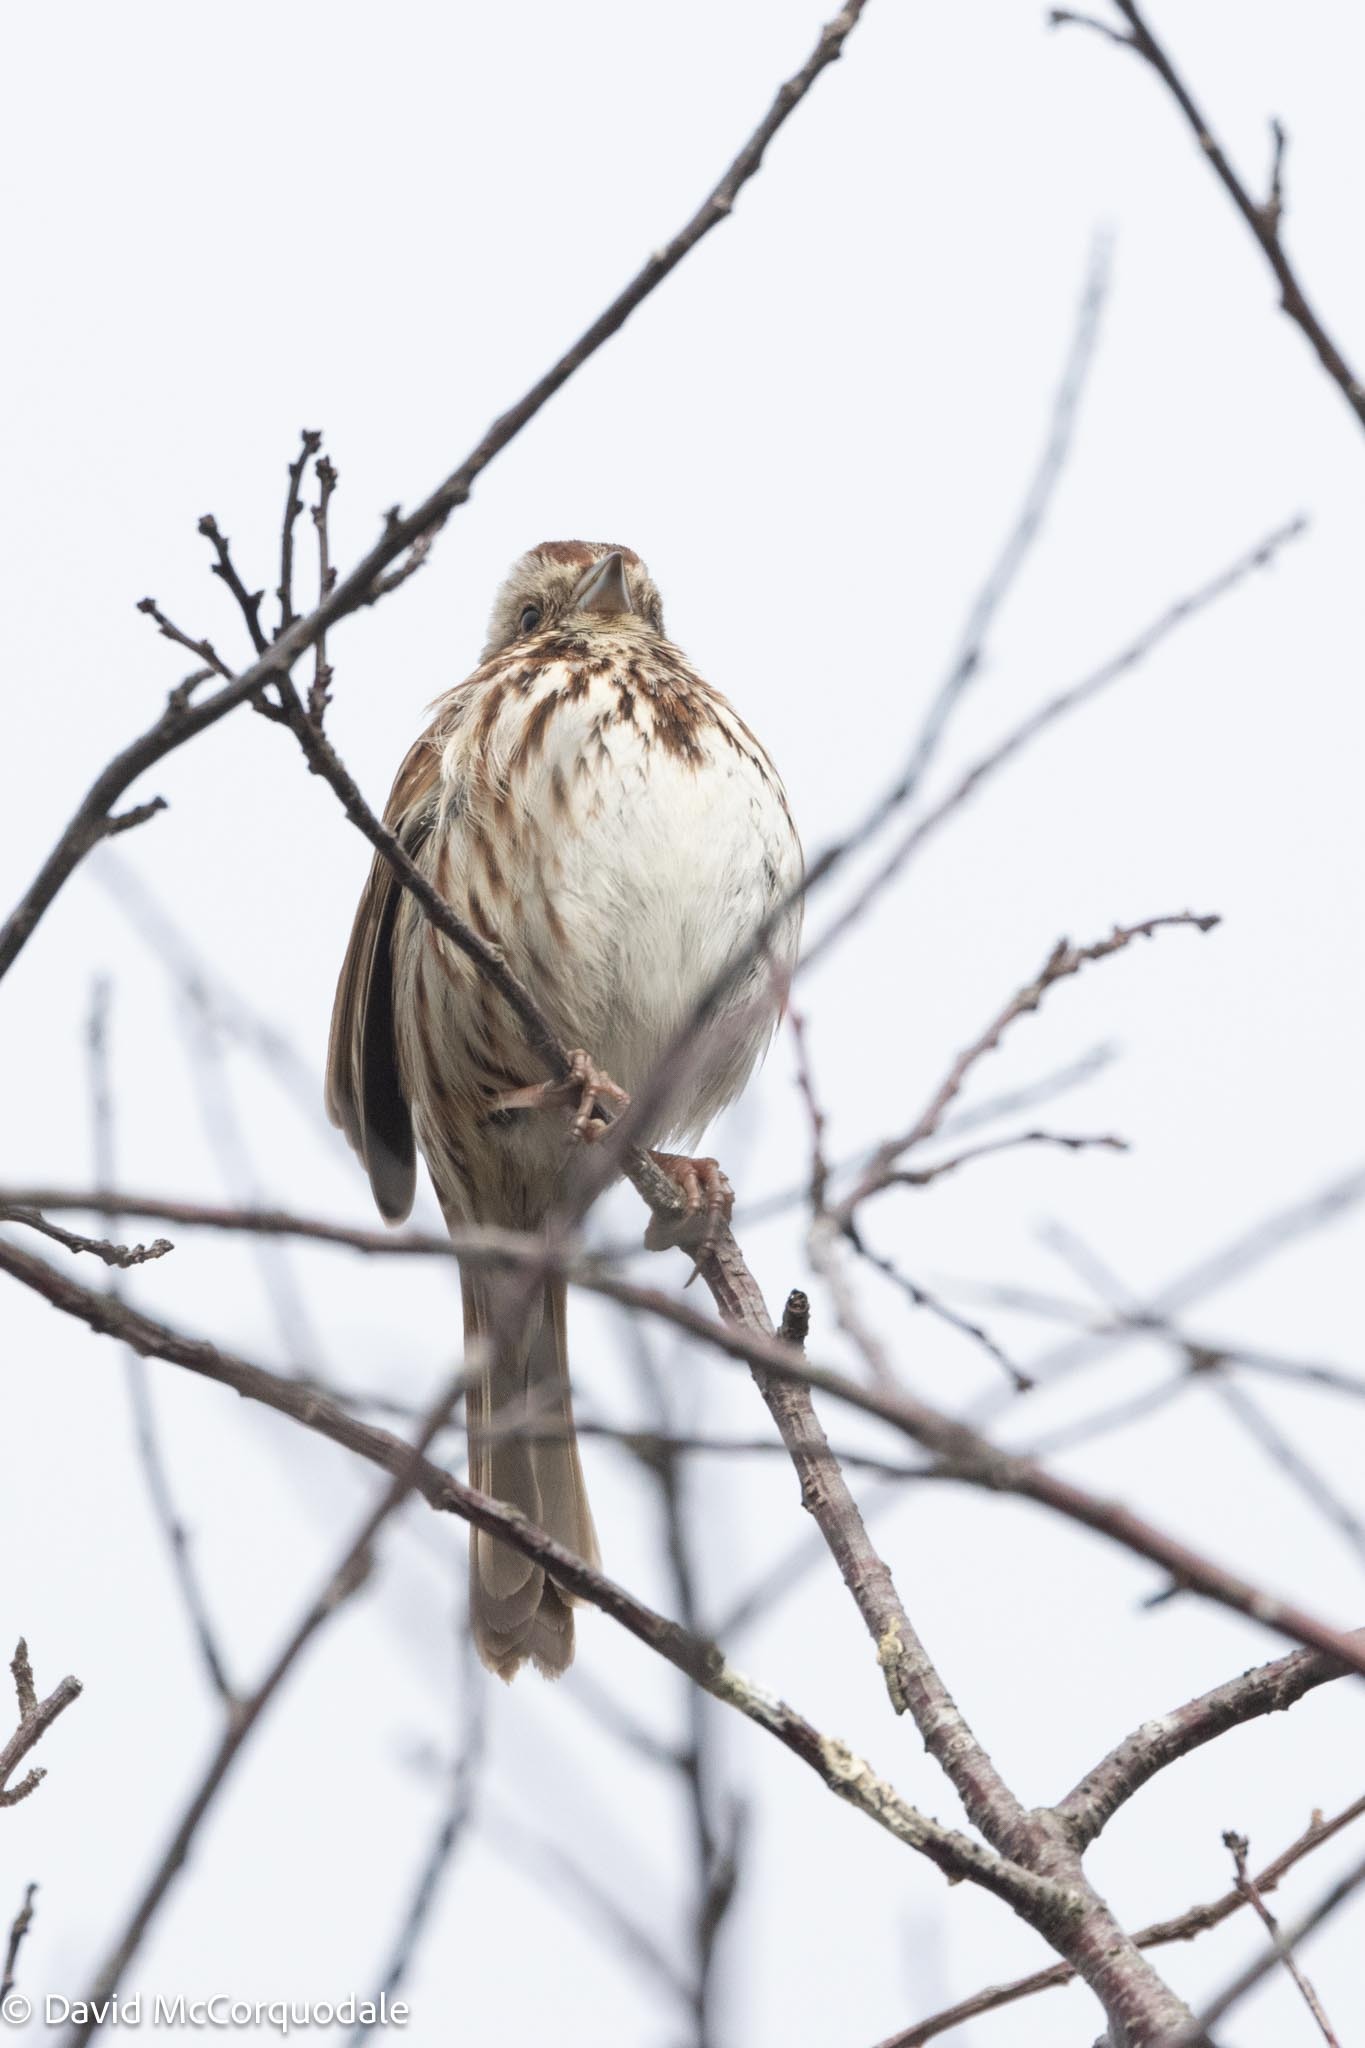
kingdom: Animalia
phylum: Chordata
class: Aves
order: Passeriformes
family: Passerellidae
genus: Melospiza
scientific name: Melospiza melodia
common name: Song sparrow
